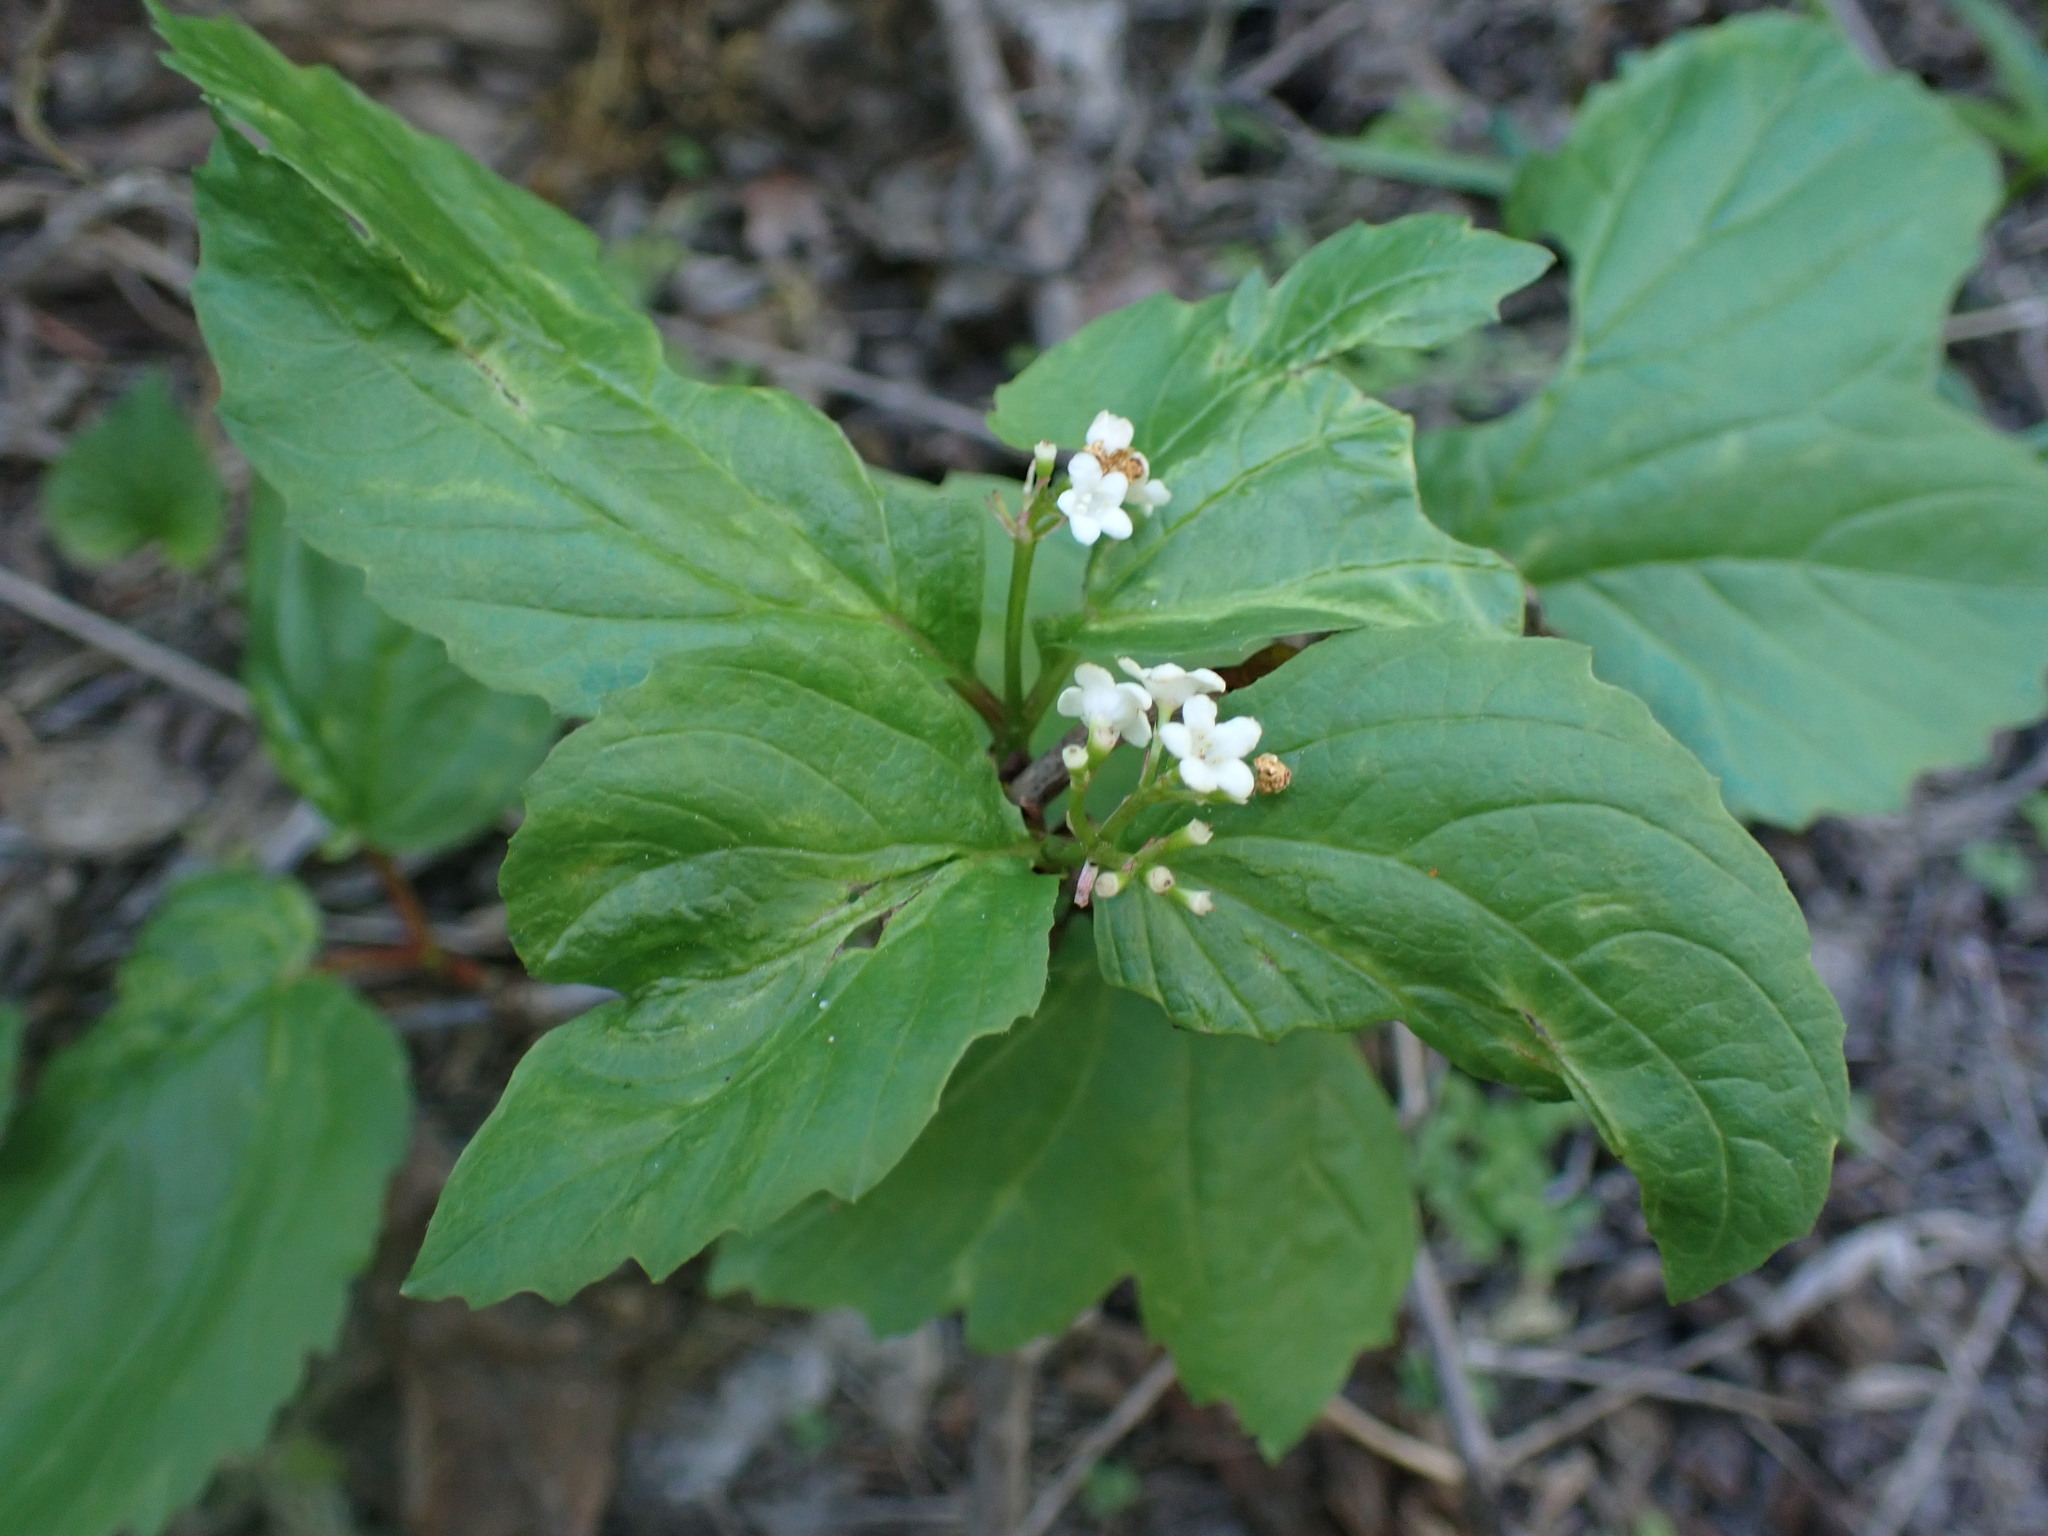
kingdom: Plantae
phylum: Tracheophyta
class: Magnoliopsida
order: Dipsacales
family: Viburnaceae
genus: Viburnum
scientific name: Viburnum edule
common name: Mooseberry
